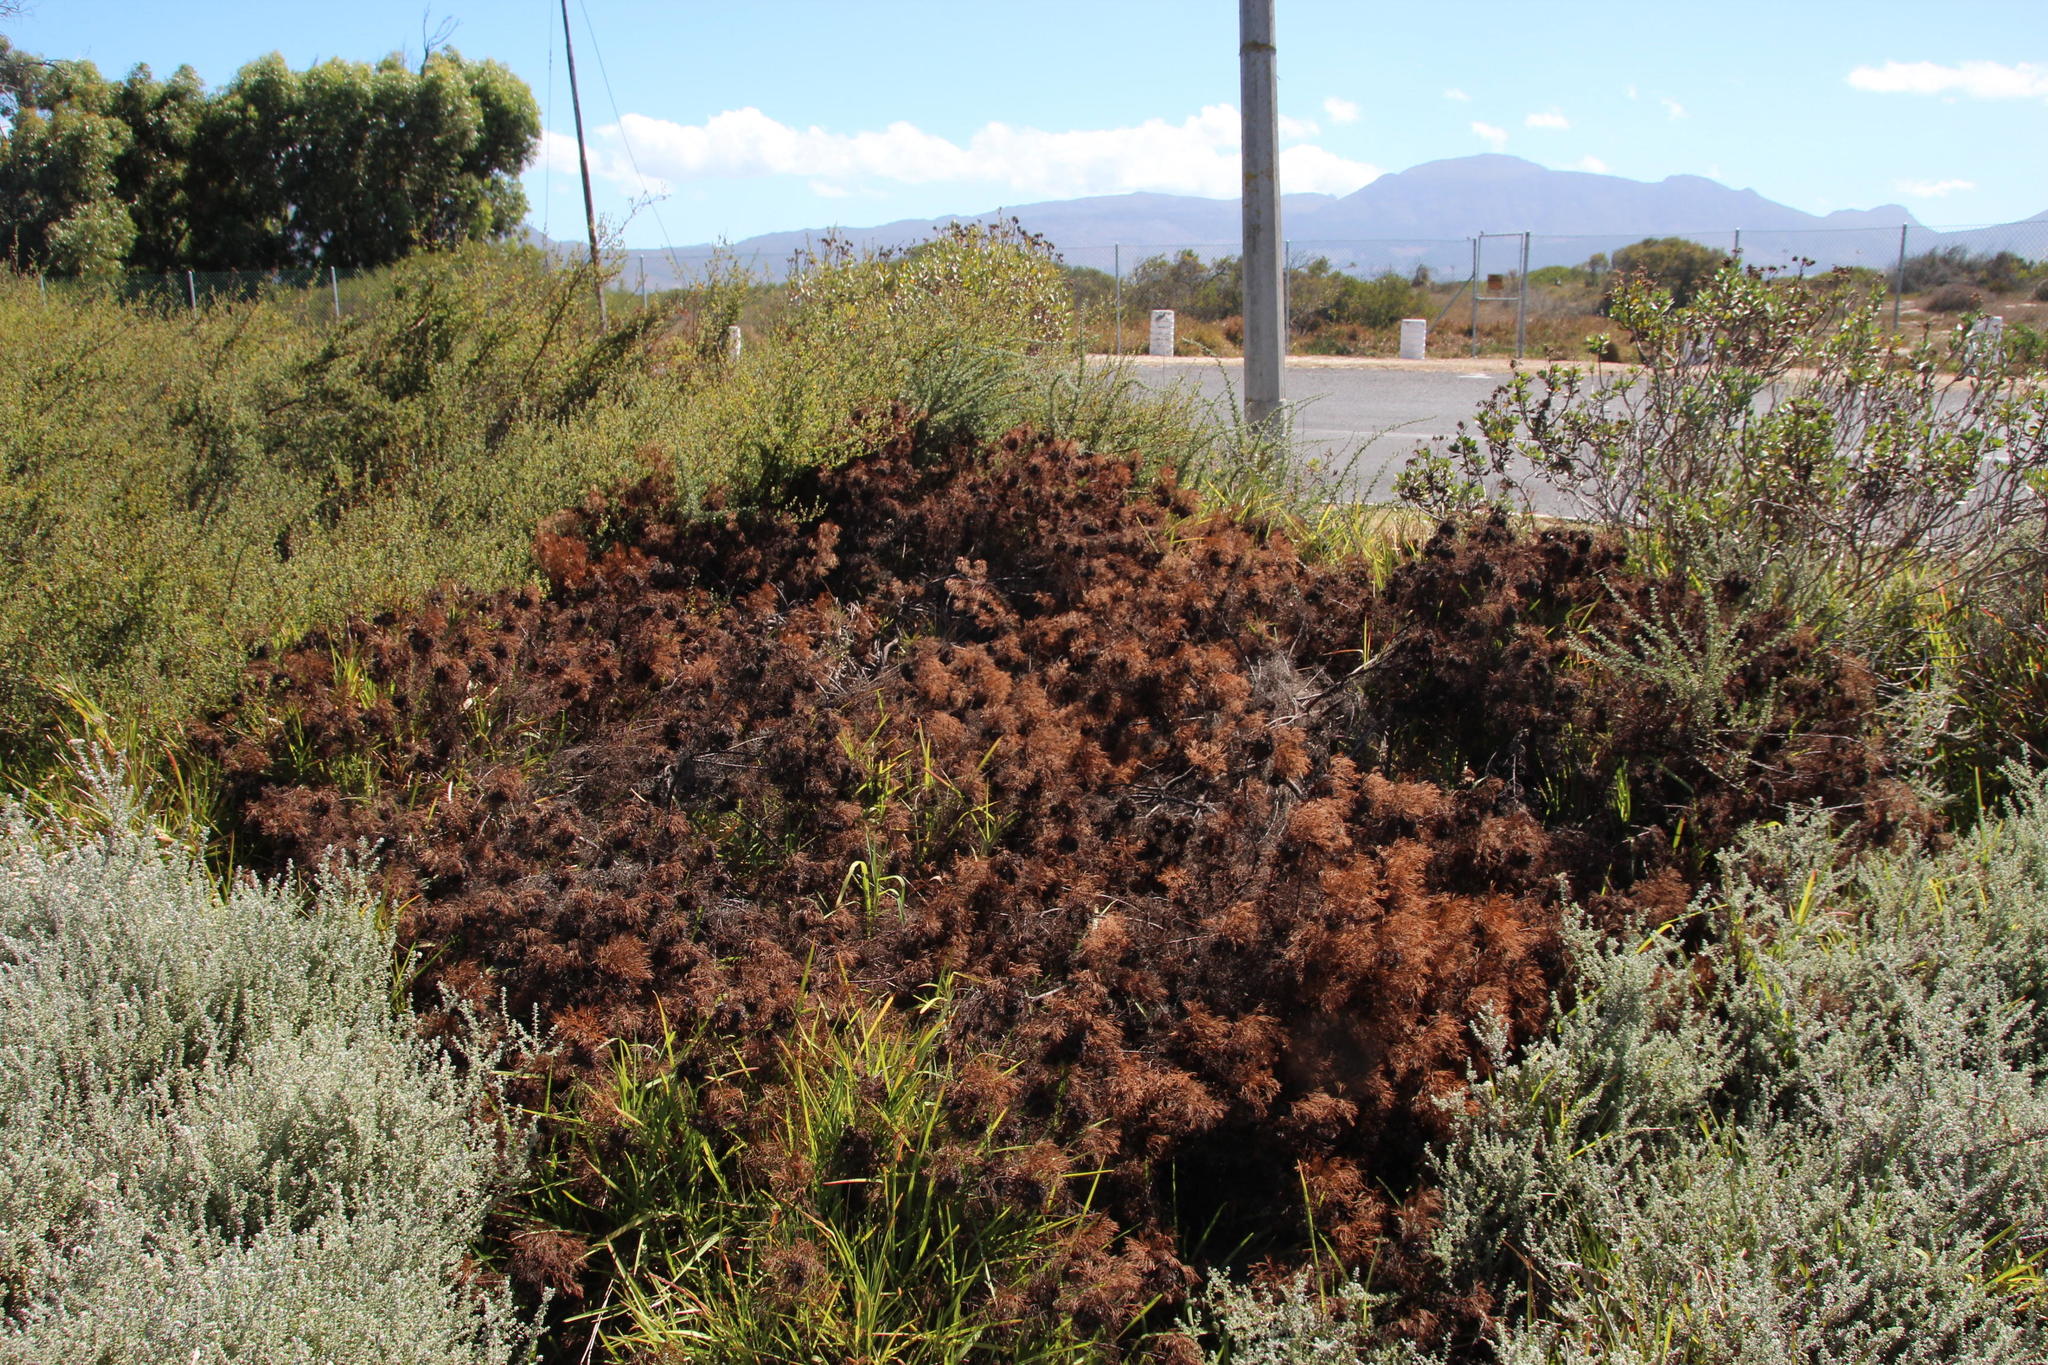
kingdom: Plantae
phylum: Tracheophyta
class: Magnoliopsida
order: Proteales
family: Proteaceae
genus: Serruria
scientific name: Serruria
